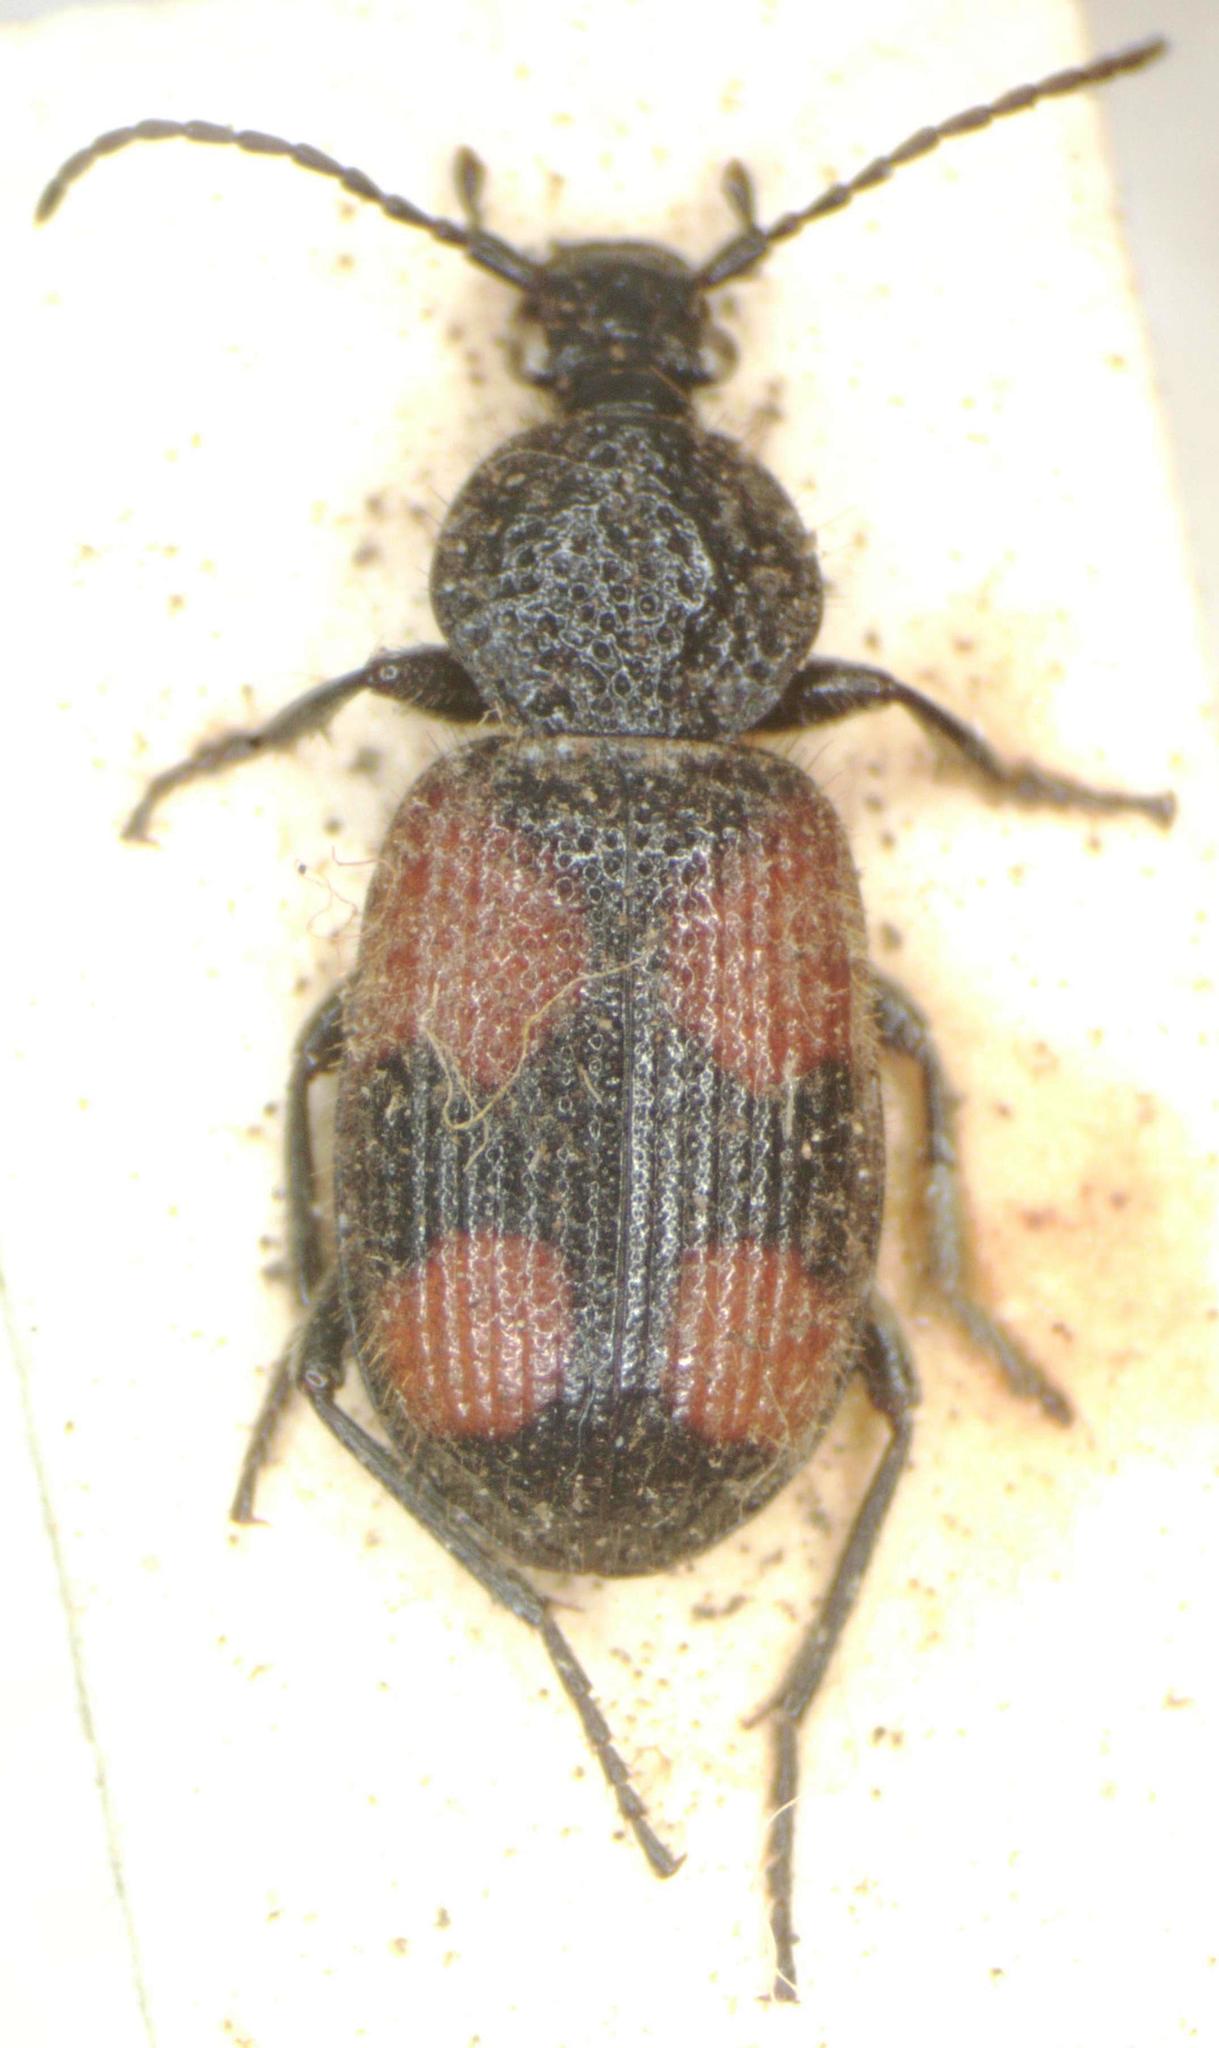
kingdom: Animalia
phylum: Arthropoda
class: Insecta
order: Coleoptera
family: Carabidae
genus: Panagaeus
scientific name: Panagaeus bipustulatus
